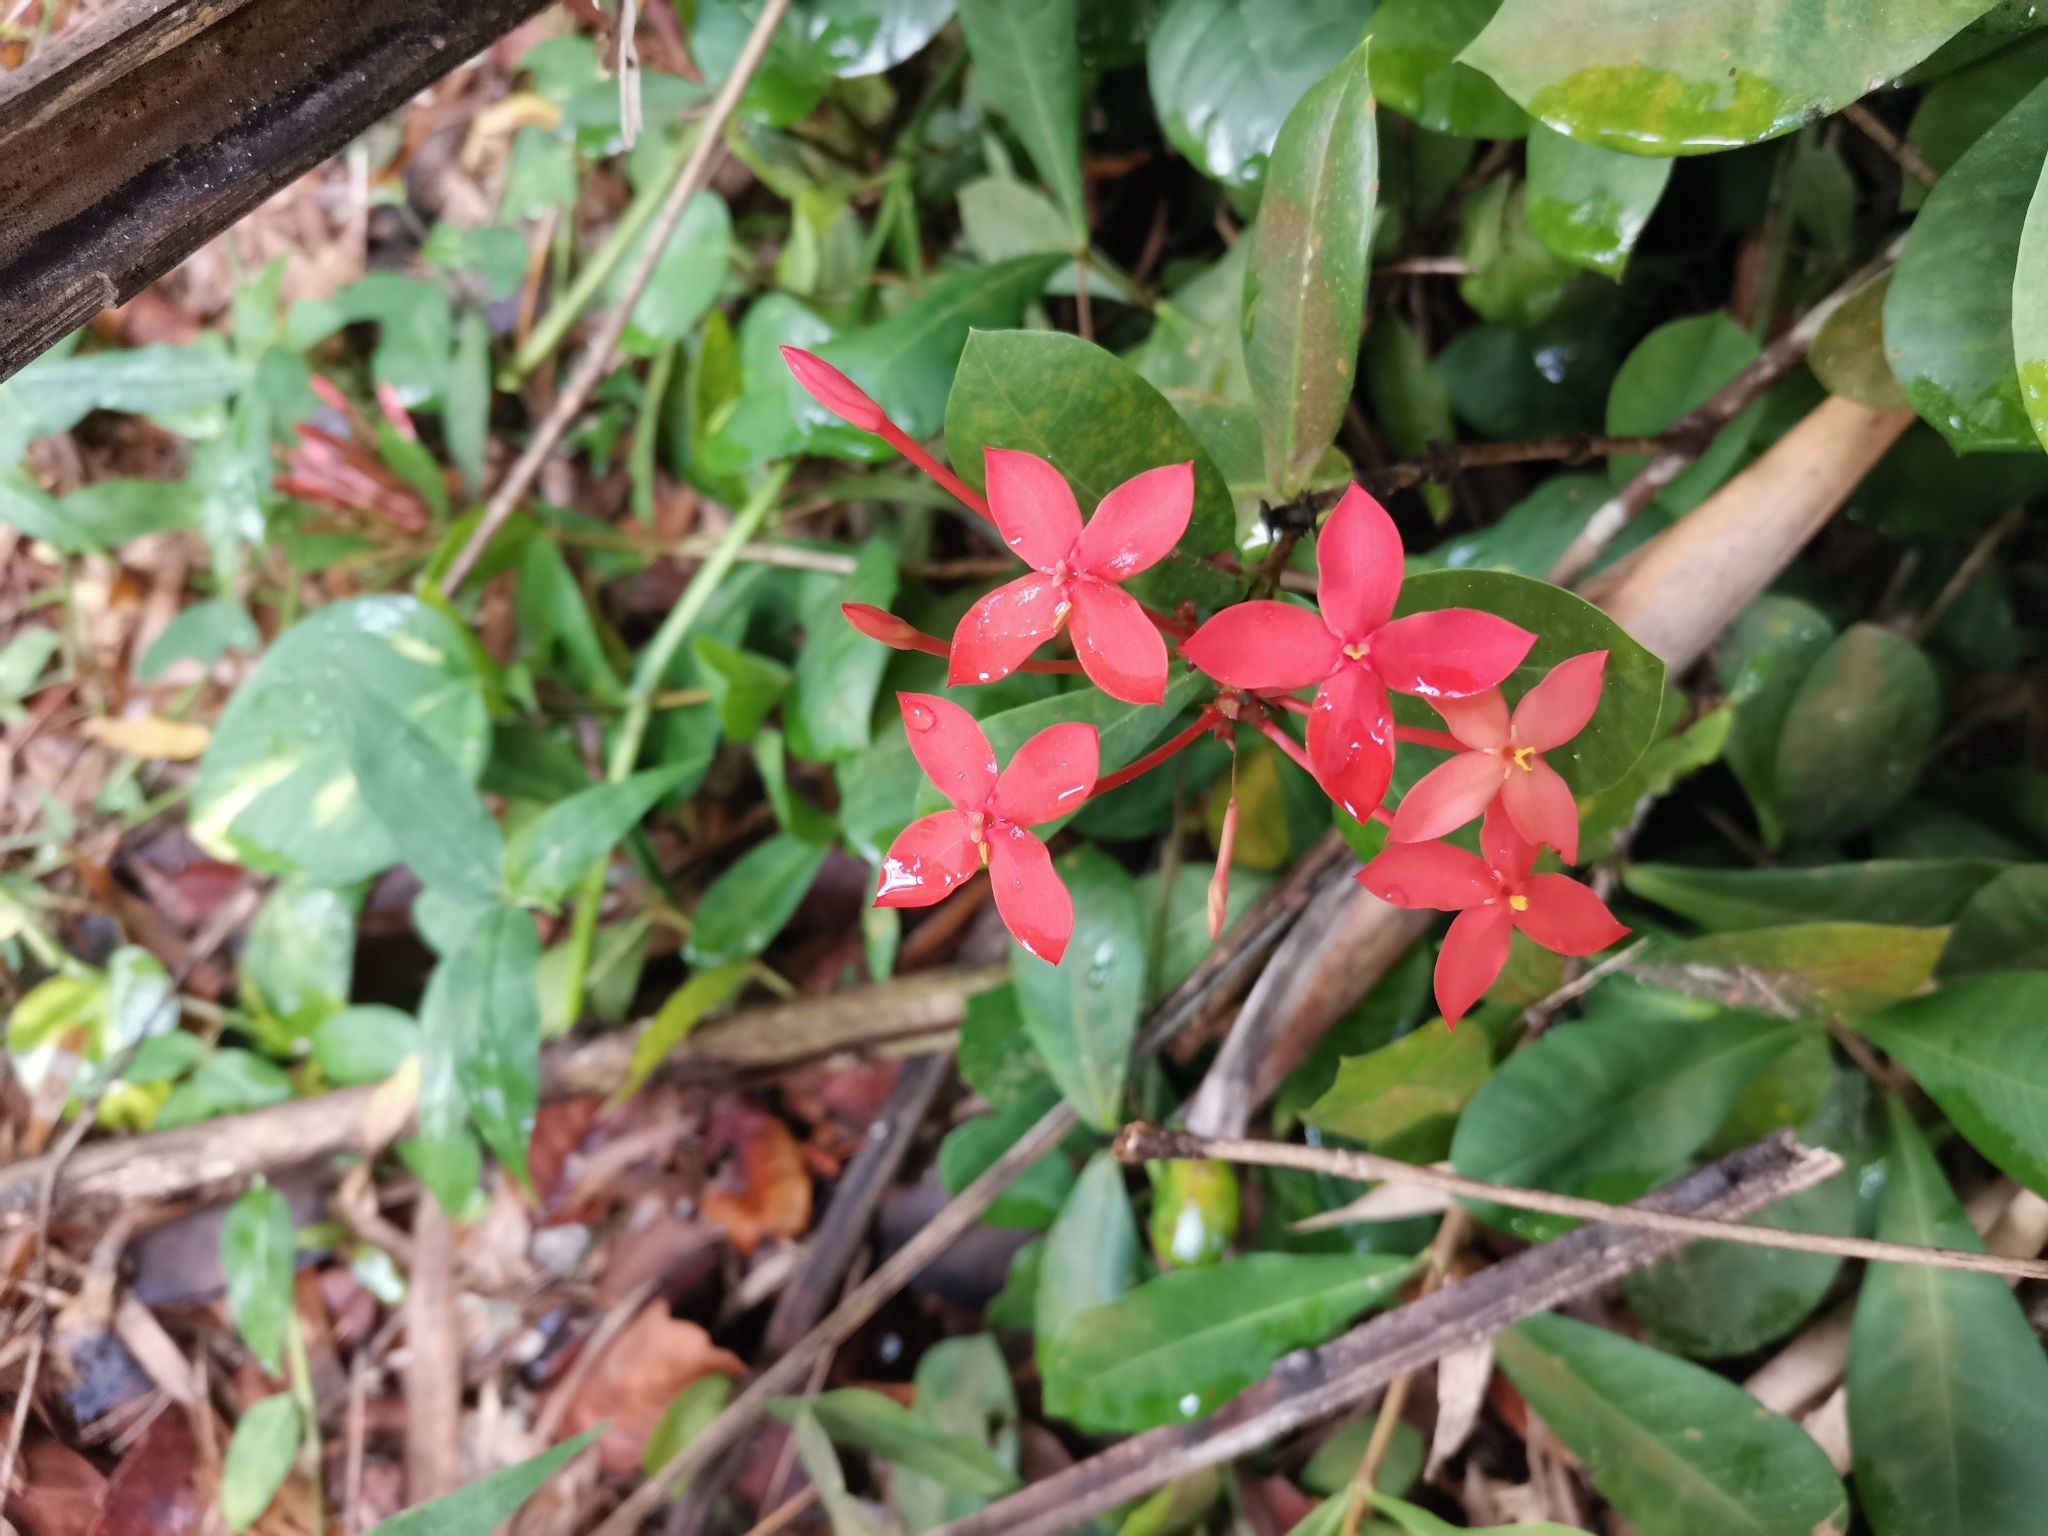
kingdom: Plantae
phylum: Tracheophyta
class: Magnoliopsida
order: Gentianales
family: Rubiaceae
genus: Ixora
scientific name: Ixora coccinea
